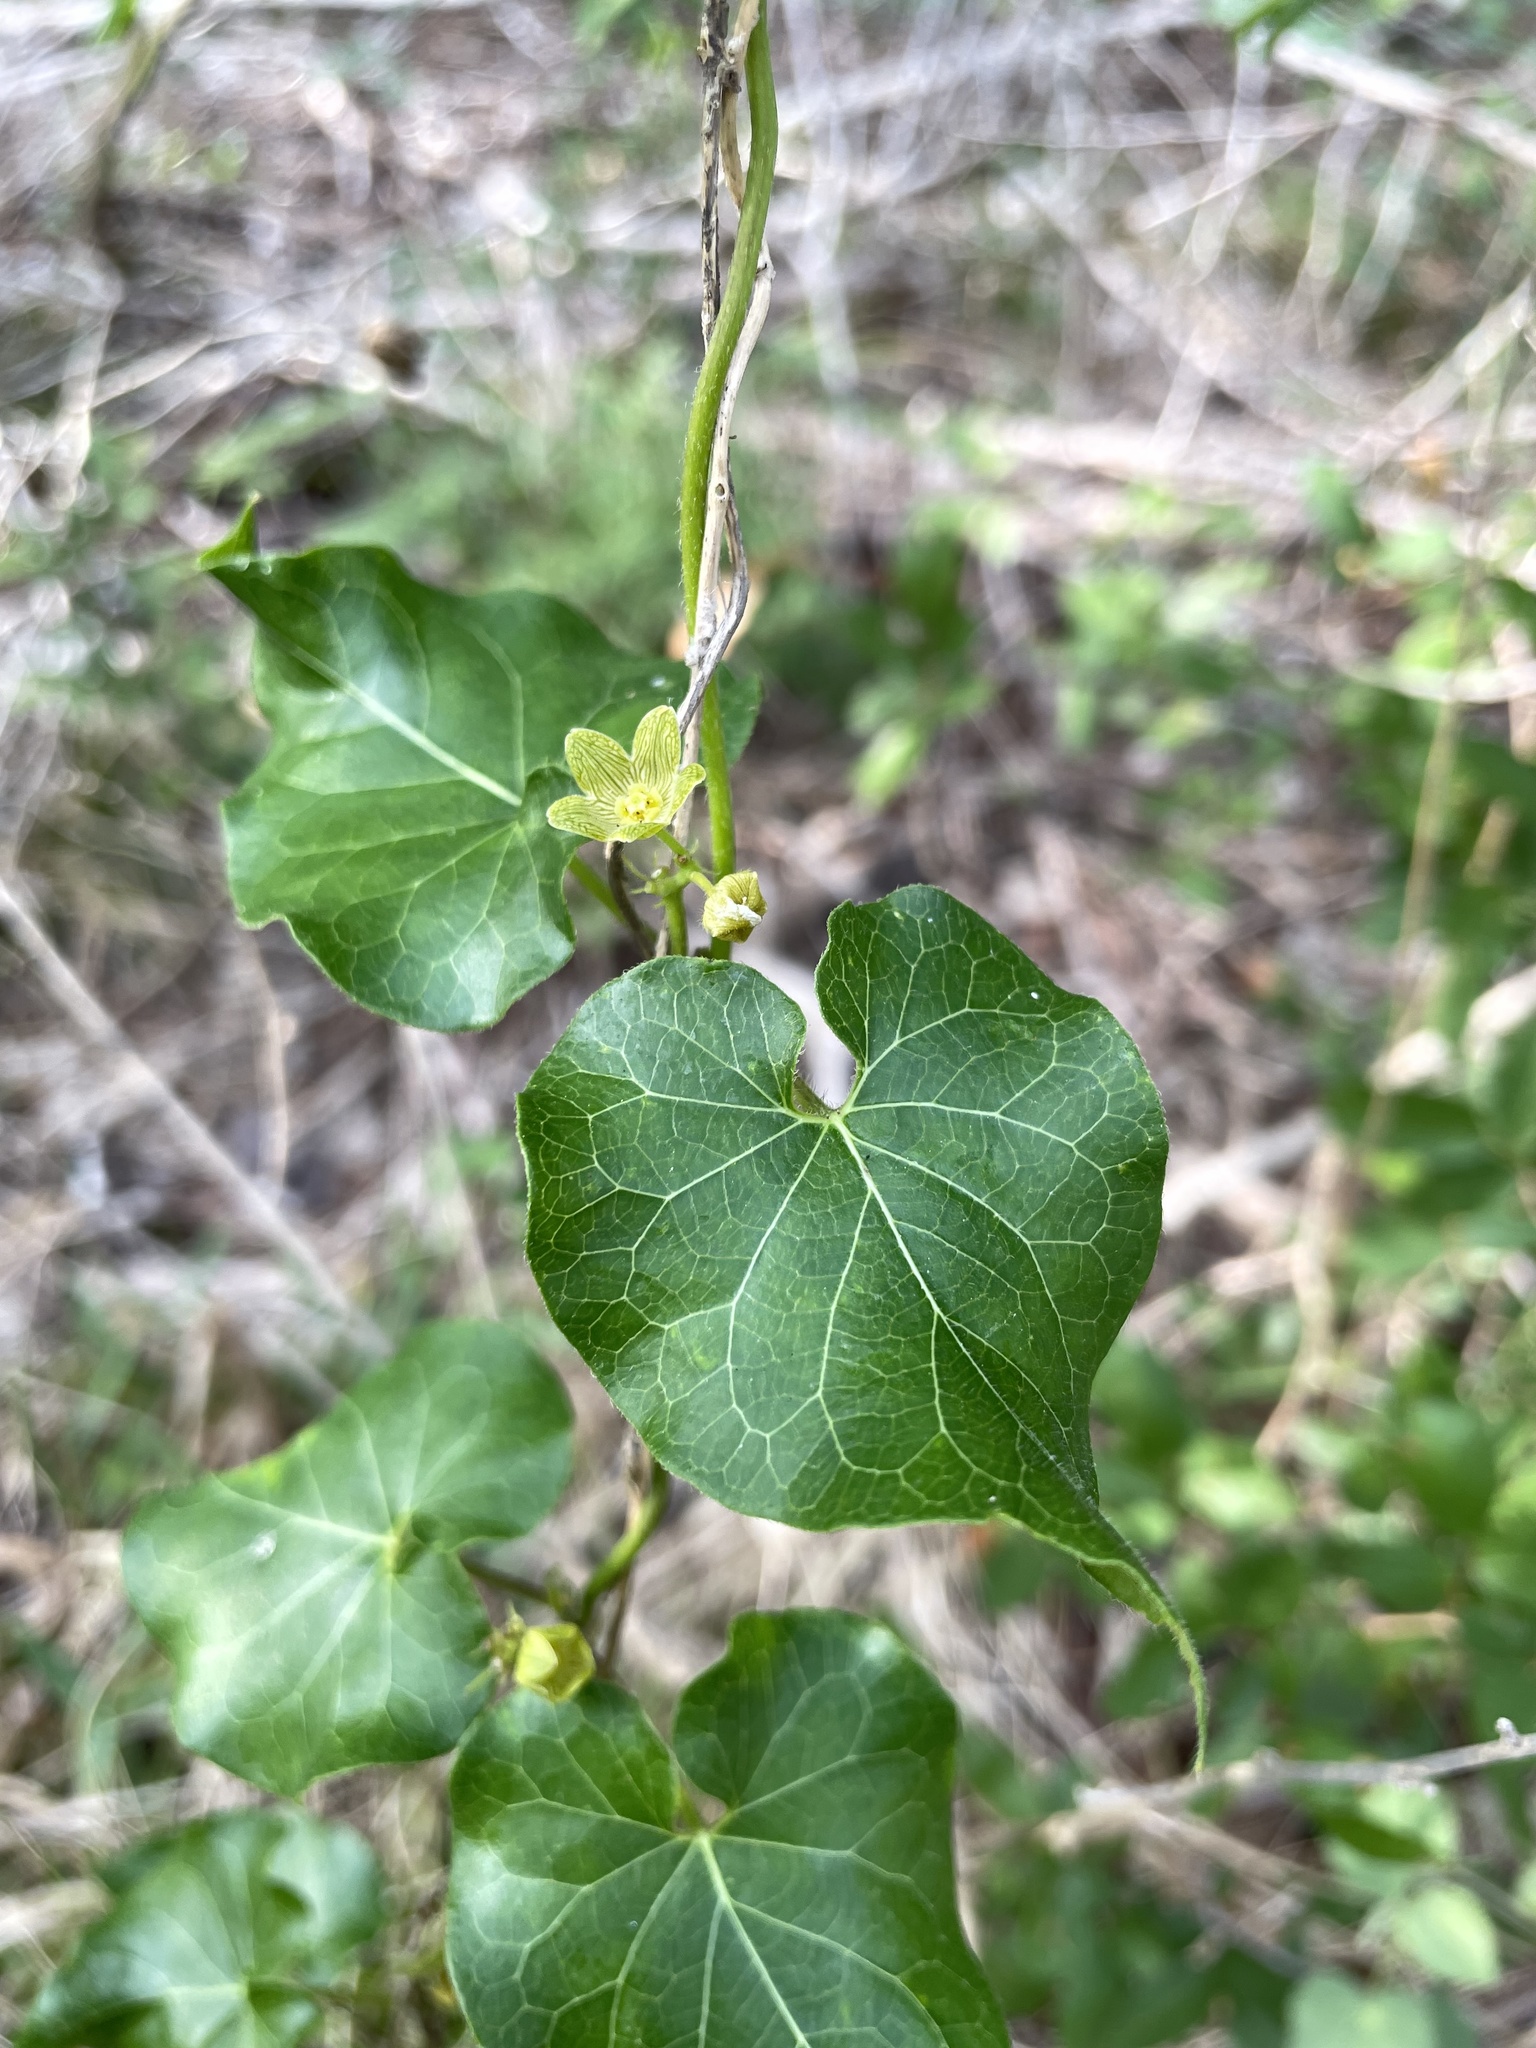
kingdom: Plantae
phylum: Tracheophyta
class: Magnoliopsida
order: Gentianales
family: Apocynaceae
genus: Matelea
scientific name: Matelea edwardsensis
